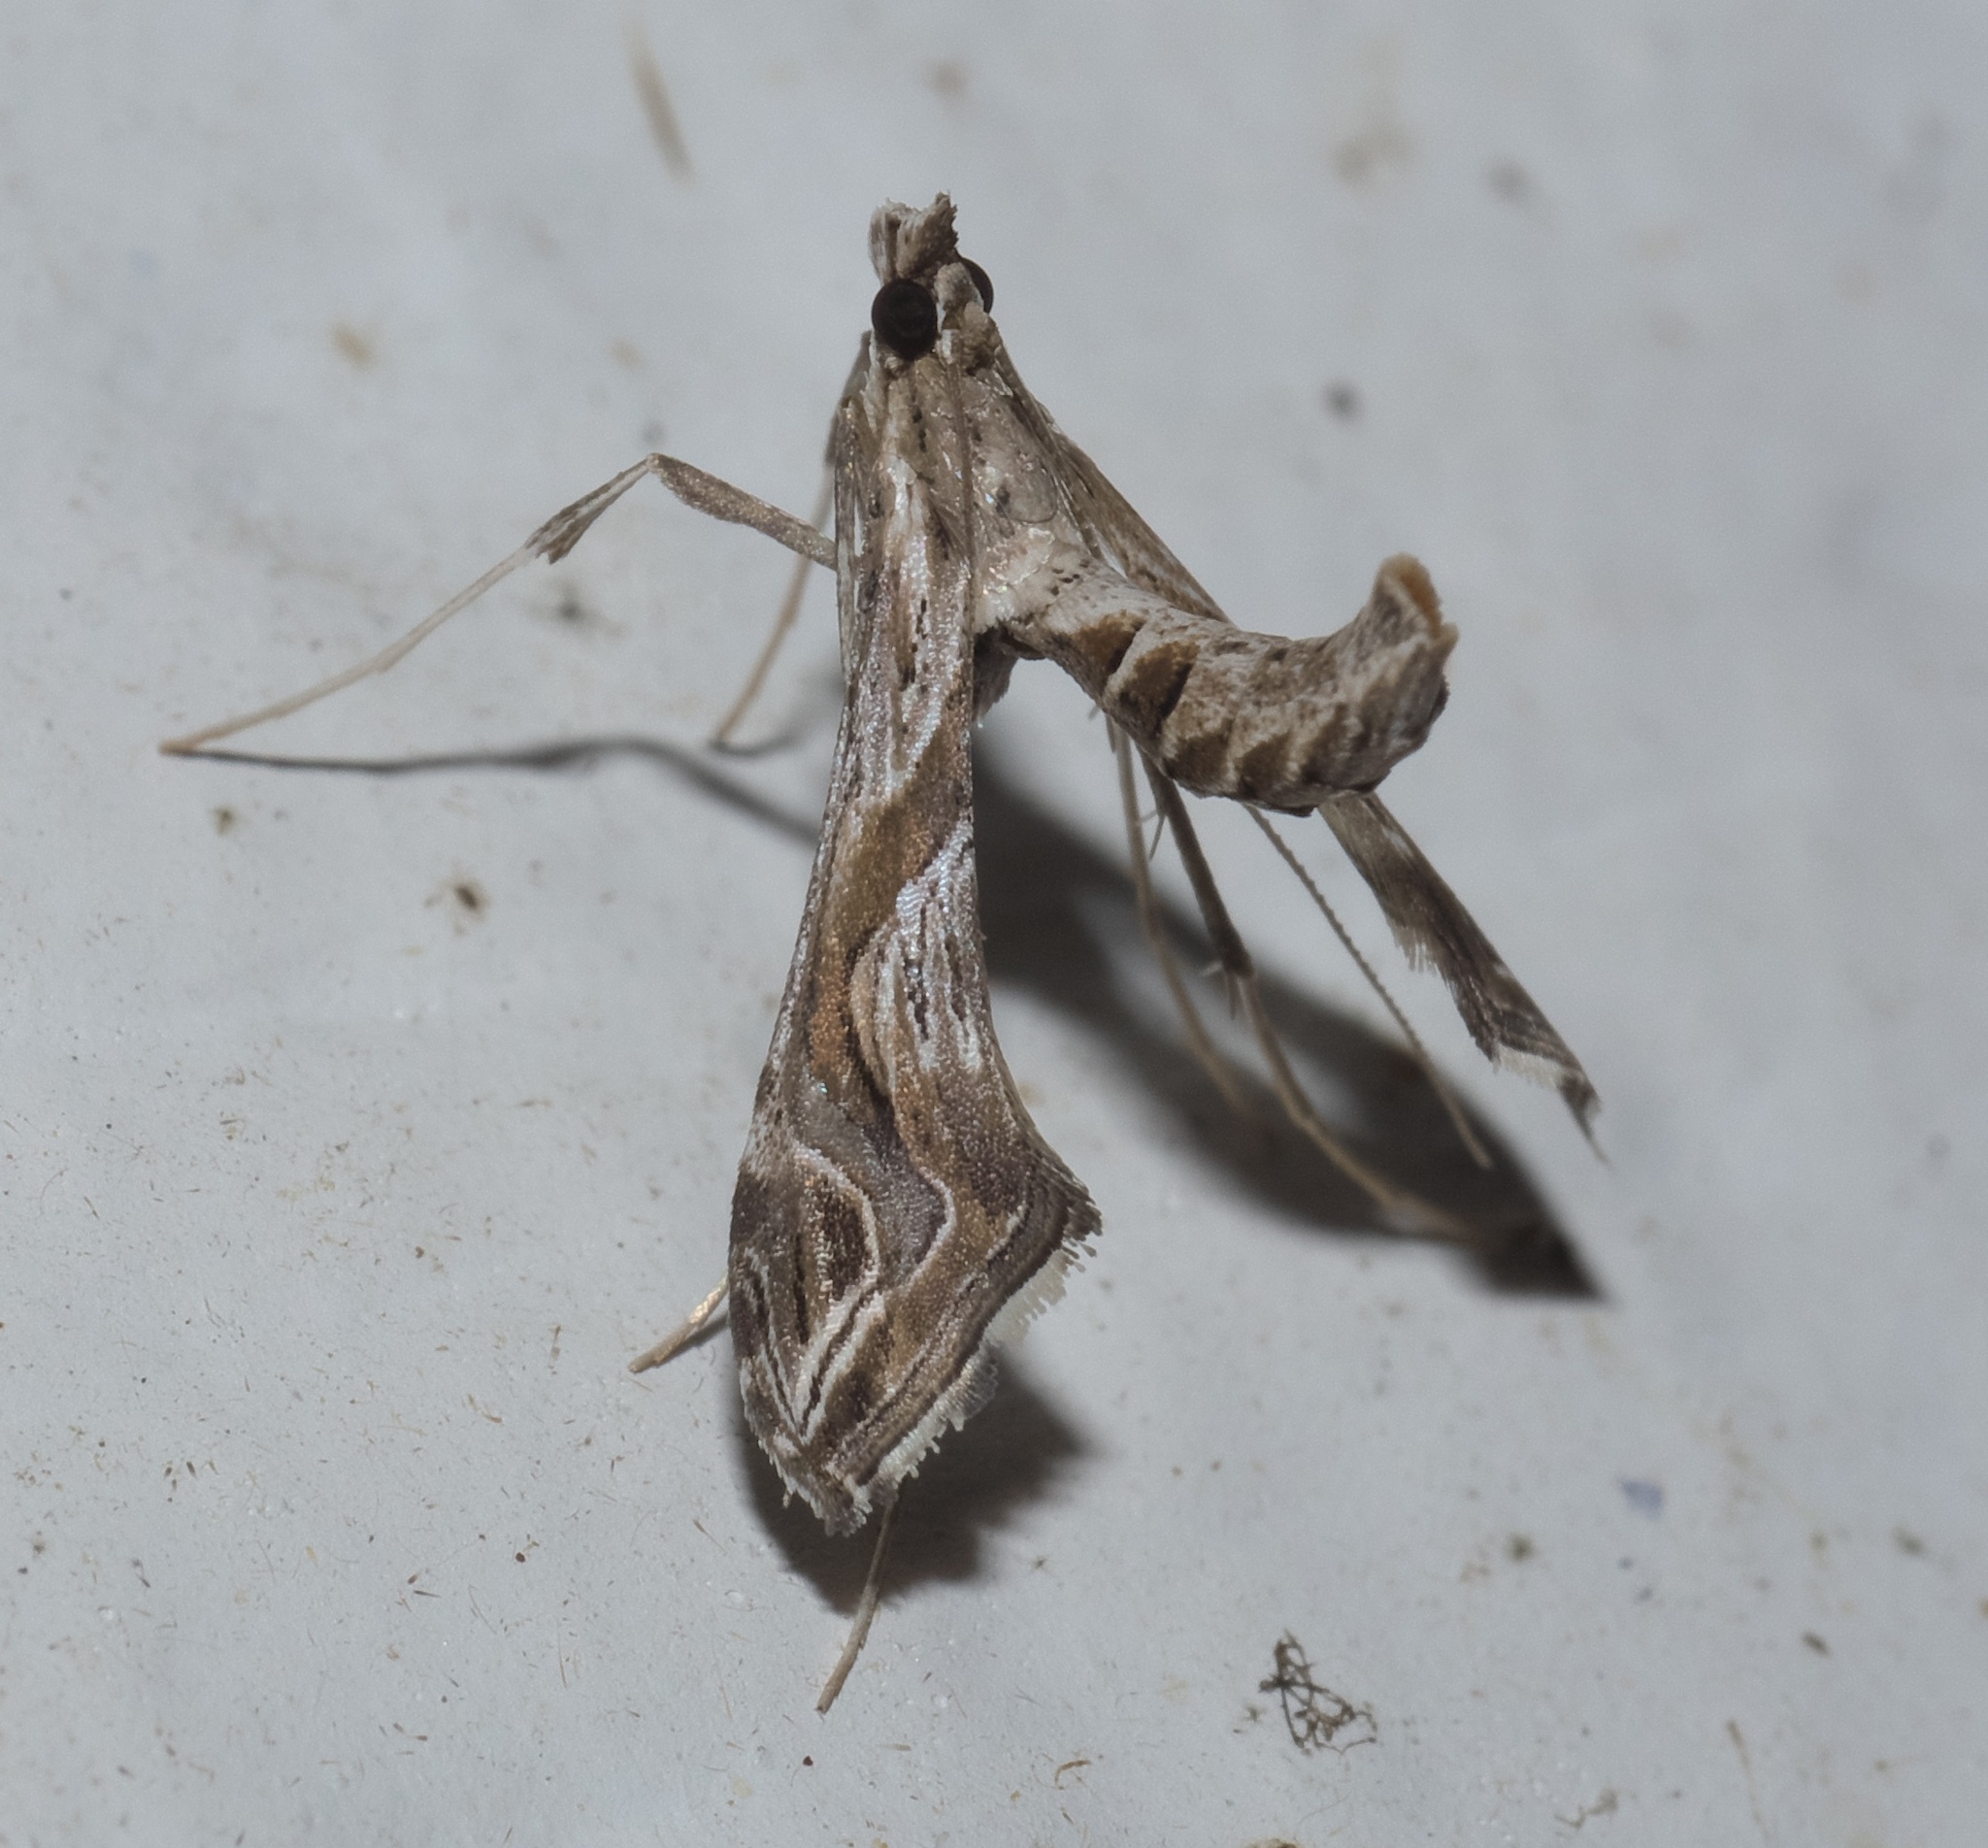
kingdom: Animalia
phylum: Arthropoda
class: Insecta
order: Lepidoptera
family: Crambidae
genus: Lineodes
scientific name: Lineodes integra
